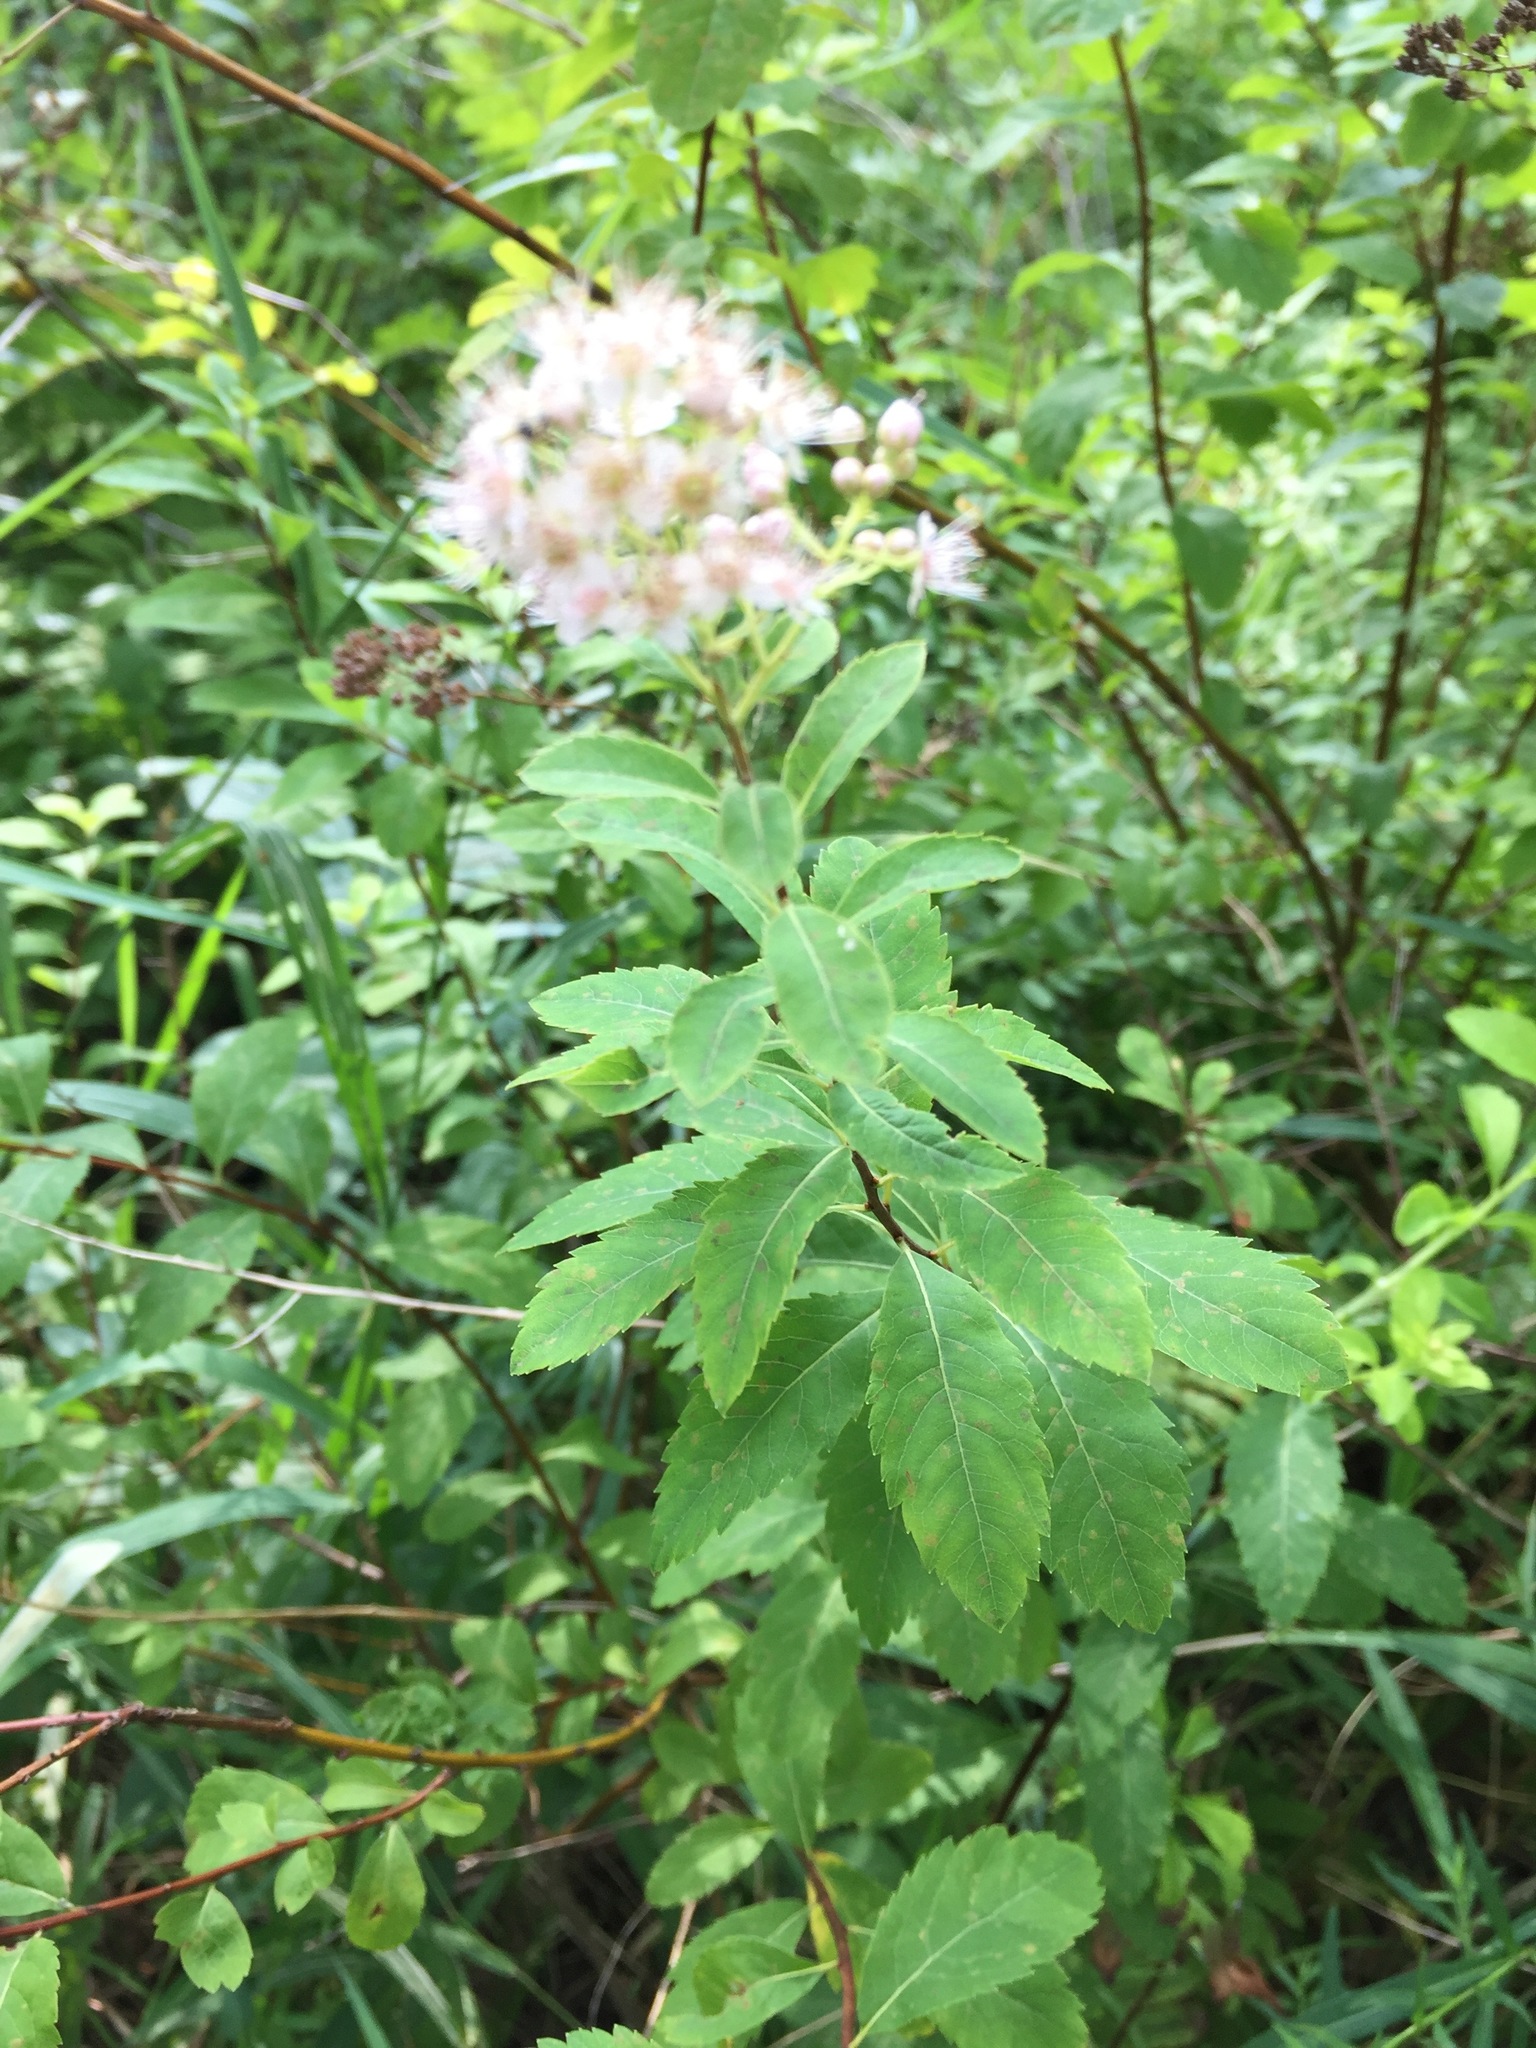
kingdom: Plantae
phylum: Tracheophyta
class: Magnoliopsida
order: Rosales
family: Rosaceae
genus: Spiraea
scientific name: Spiraea alba
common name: Pale bridewort
